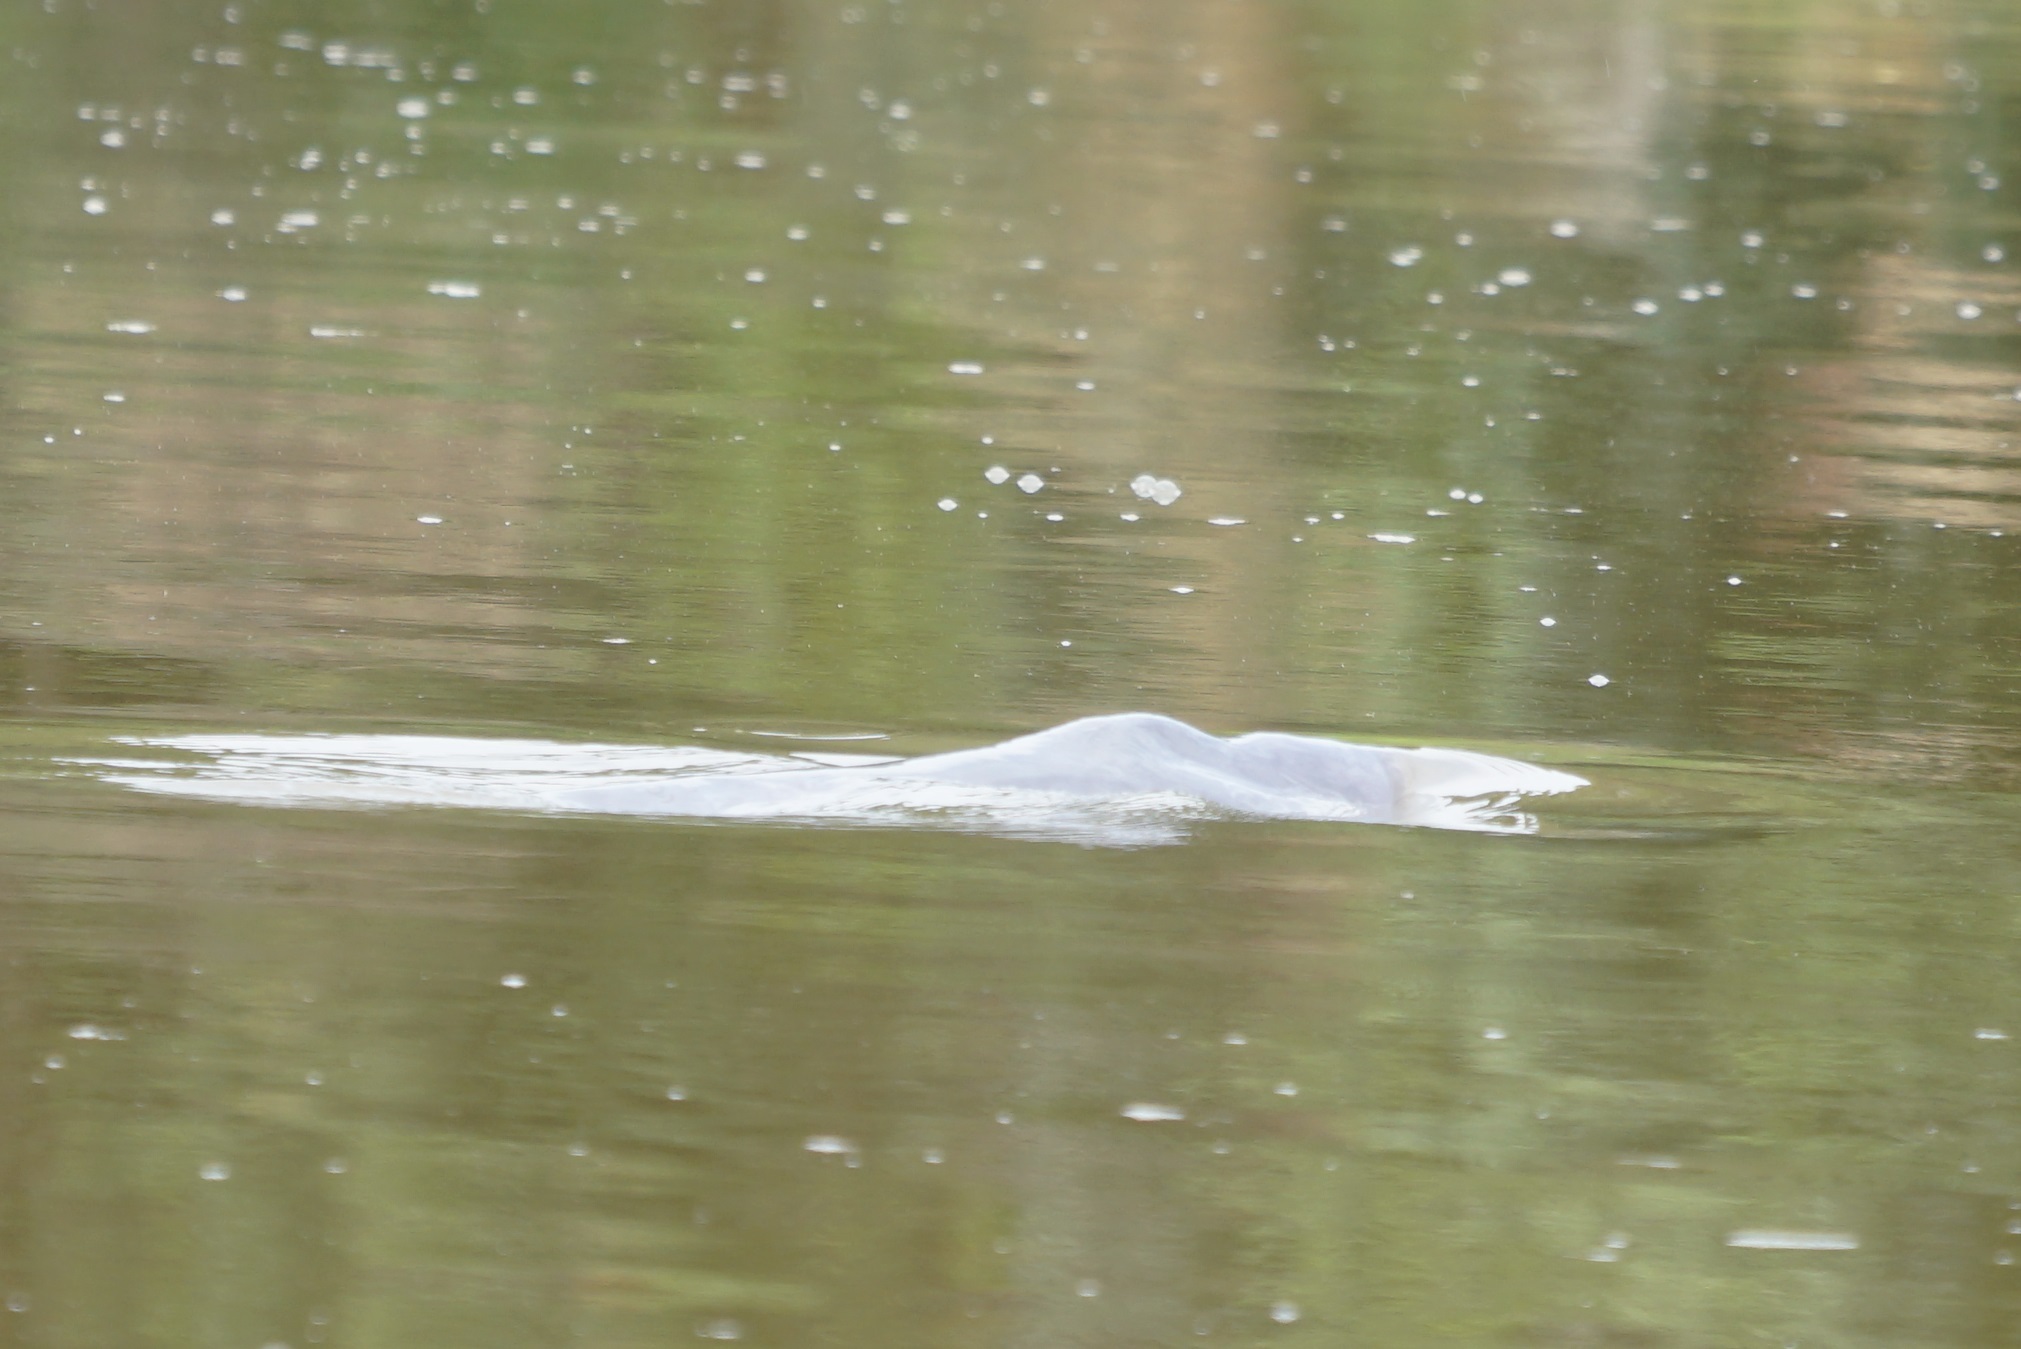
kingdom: Animalia
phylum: Chordata
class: Mammalia
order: Cetacea
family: Iniidae
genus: Inia
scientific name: Inia geoffrensis
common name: Amazon river dolphin
